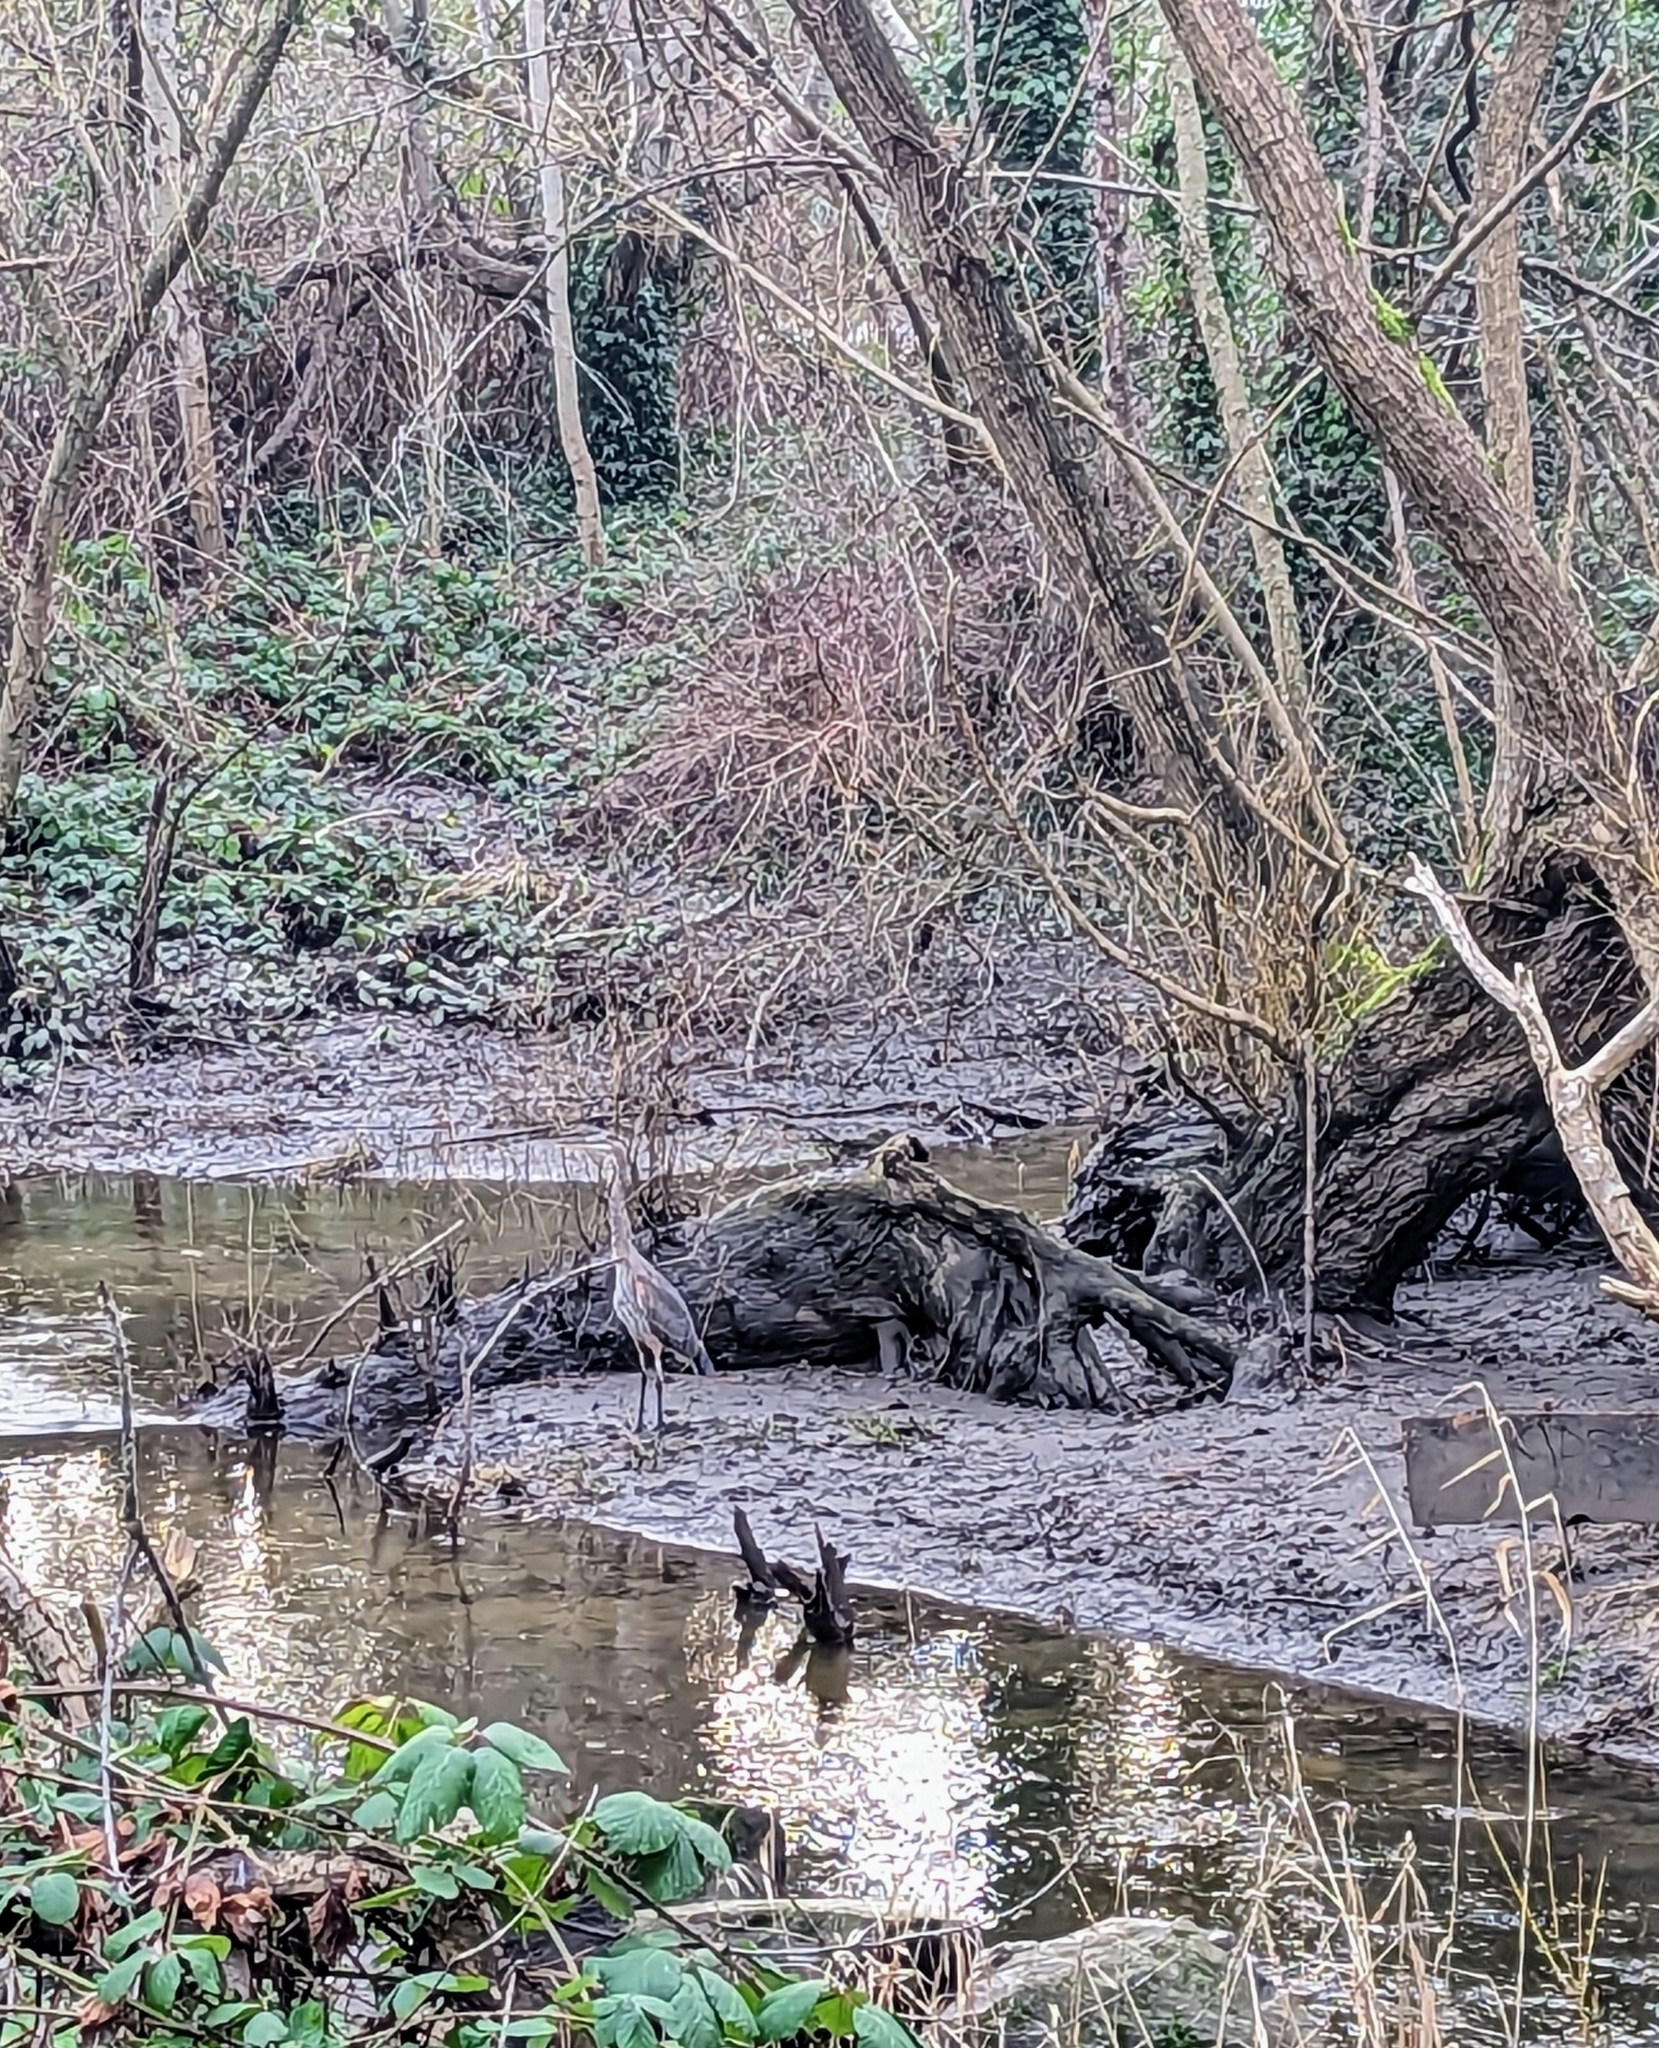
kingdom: Animalia
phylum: Chordata
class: Aves
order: Pelecaniformes
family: Ardeidae
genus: Ardea
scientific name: Ardea herodias
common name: Great blue heron
